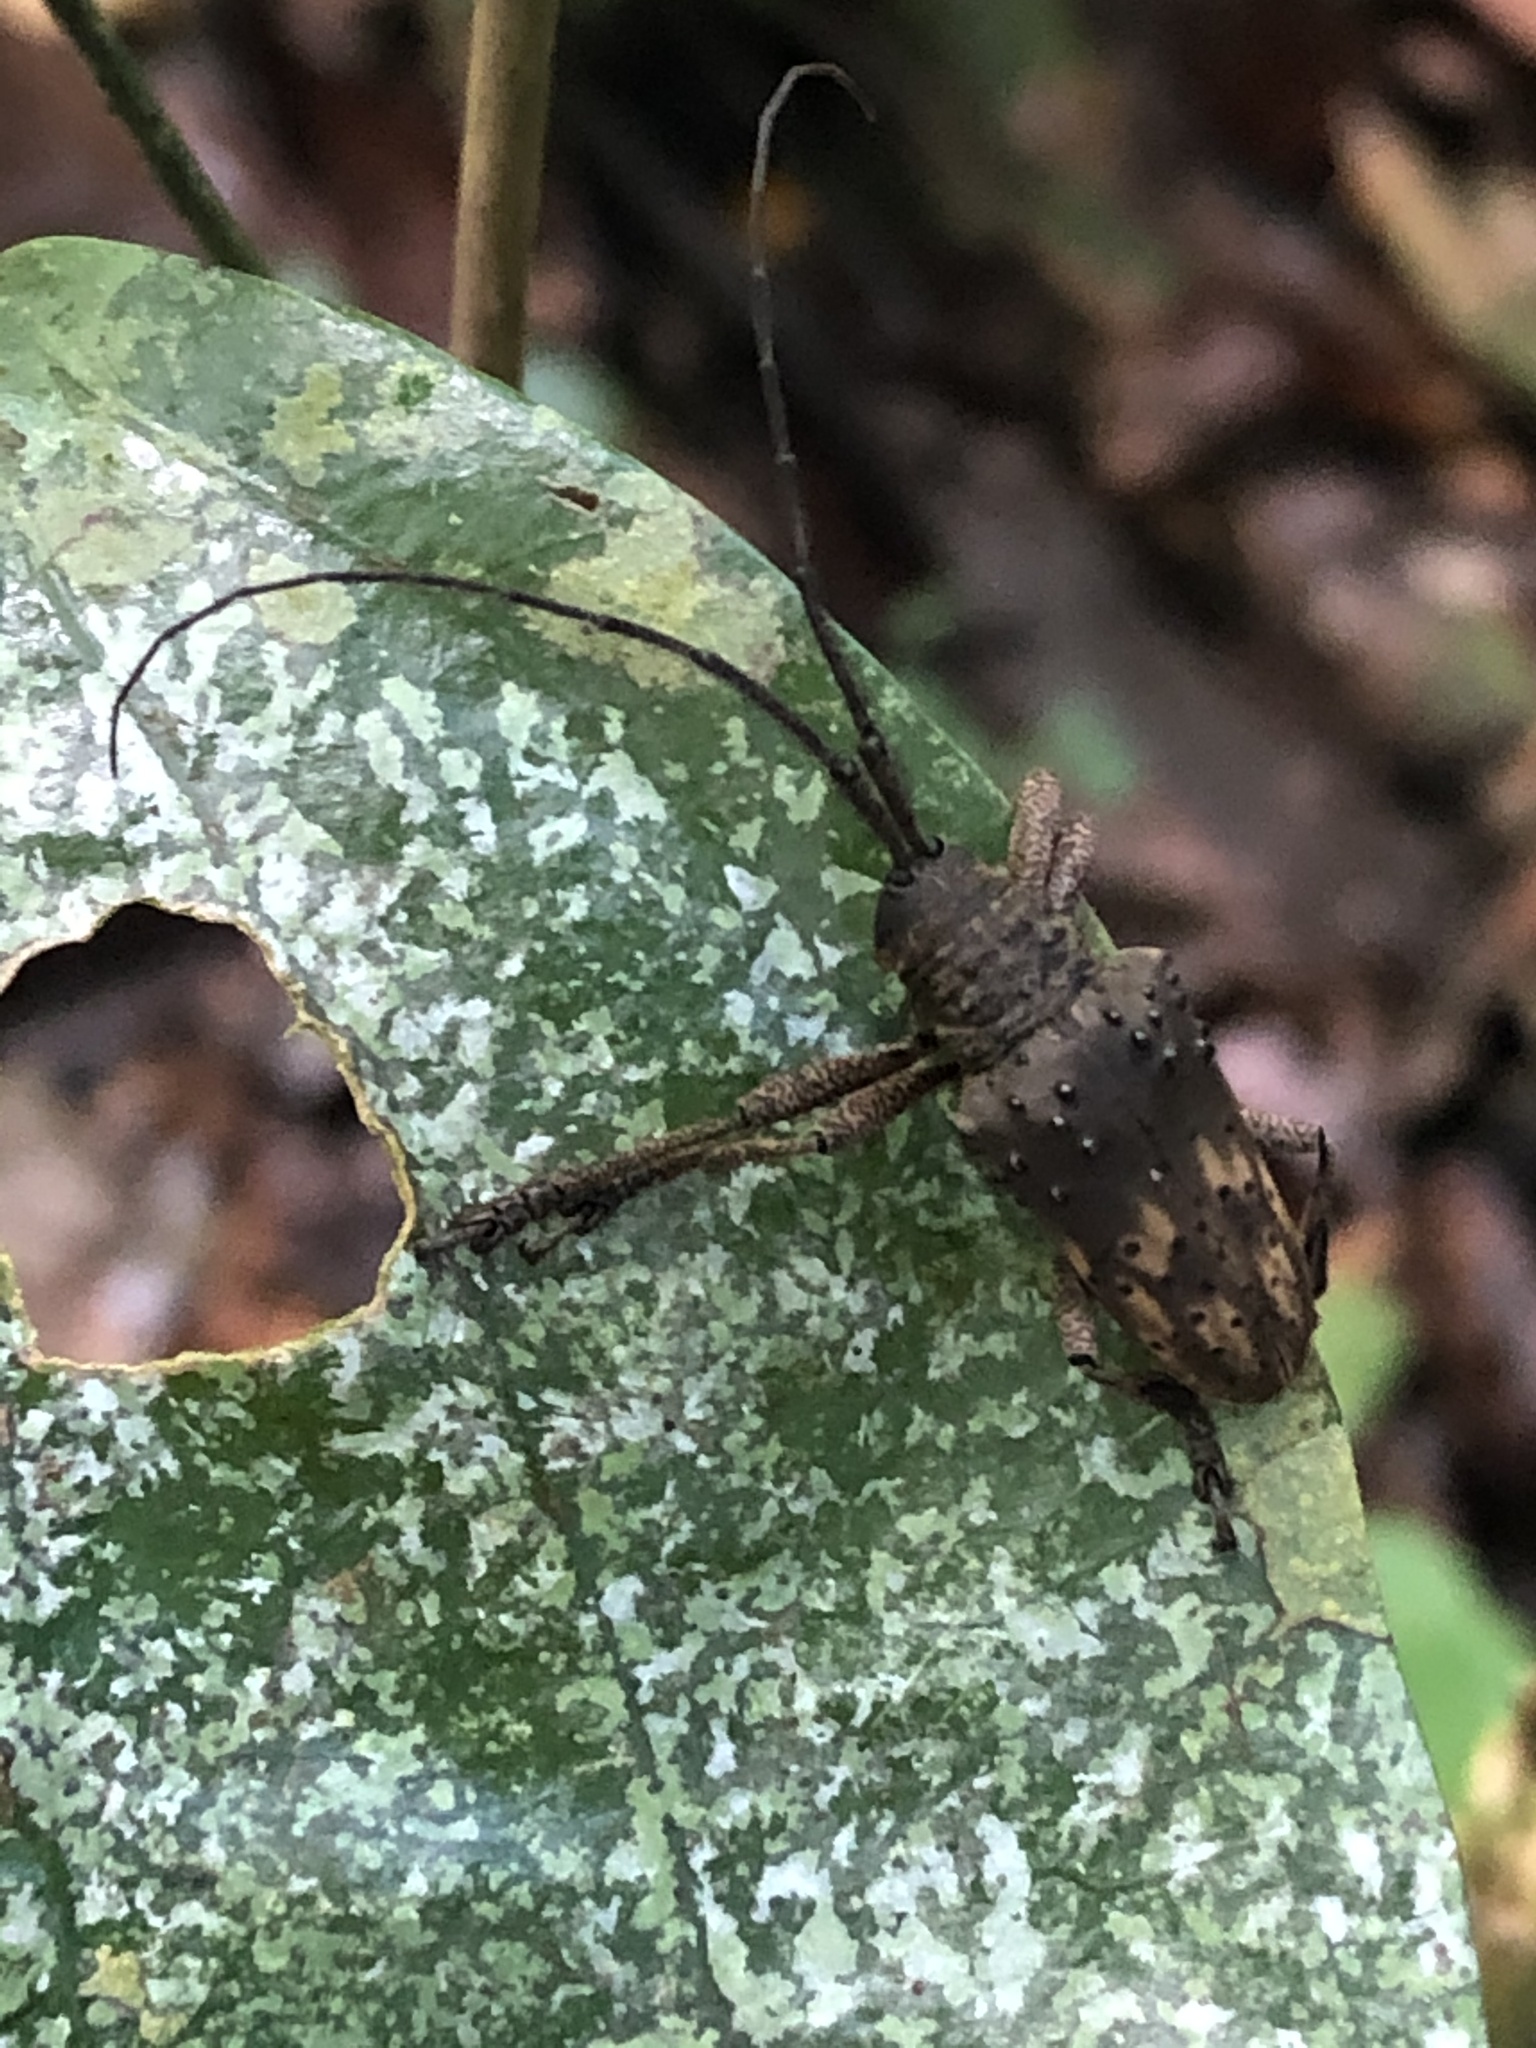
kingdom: Animalia
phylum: Arthropoda
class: Insecta
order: Coleoptera
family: Cerambycidae
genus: Jamesia
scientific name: Jamesia globifera
